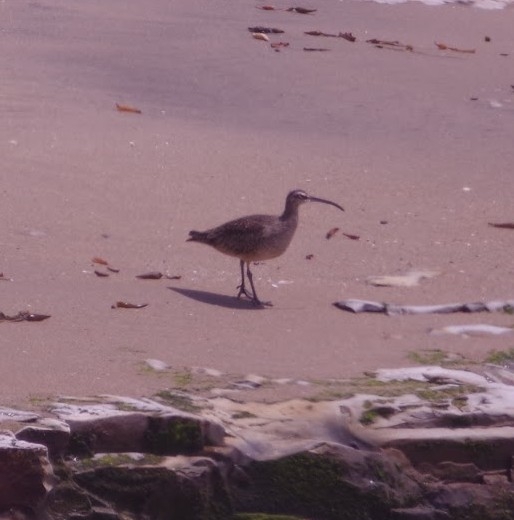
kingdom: Animalia
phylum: Chordata
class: Aves
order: Charadriiformes
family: Scolopacidae
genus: Numenius
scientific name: Numenius phaeopus
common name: Whimbrel
